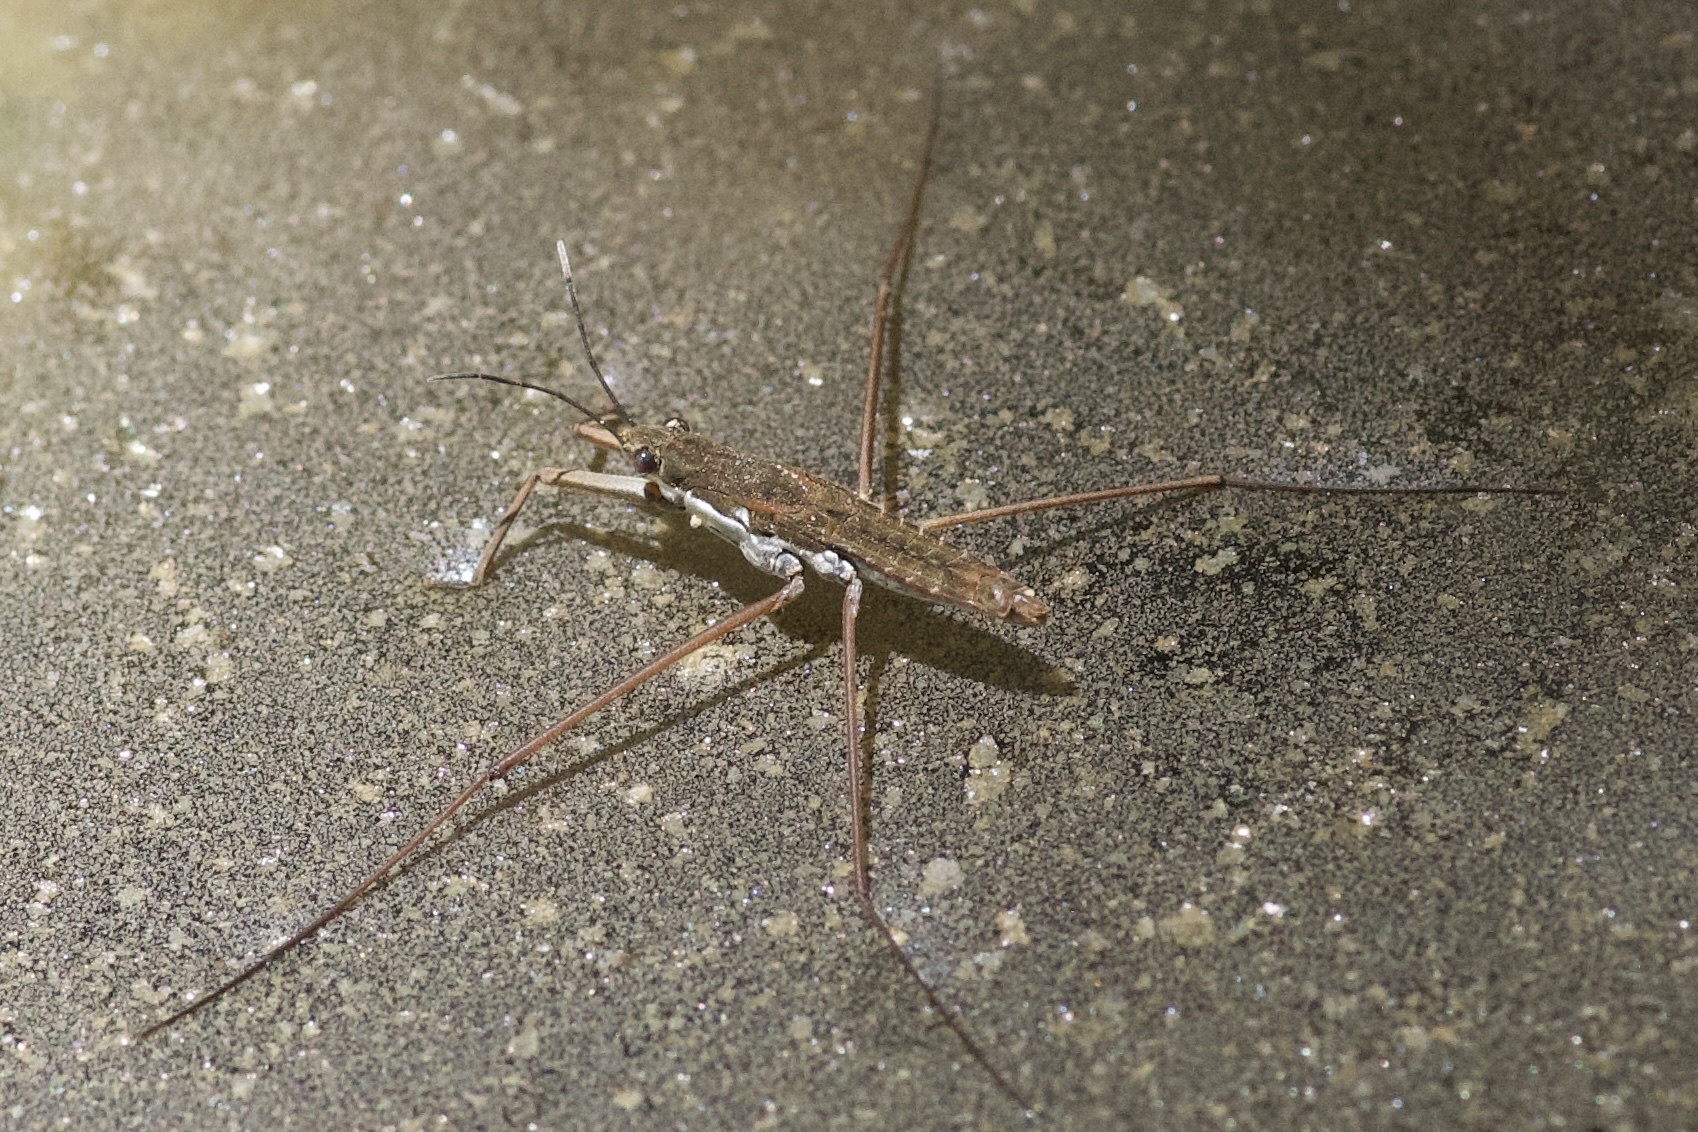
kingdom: Animalia
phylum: Arthropoda
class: Insecta
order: Hemiptera
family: Gerridae
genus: Aquarius
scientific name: Aquarius remigis
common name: Common water strider
